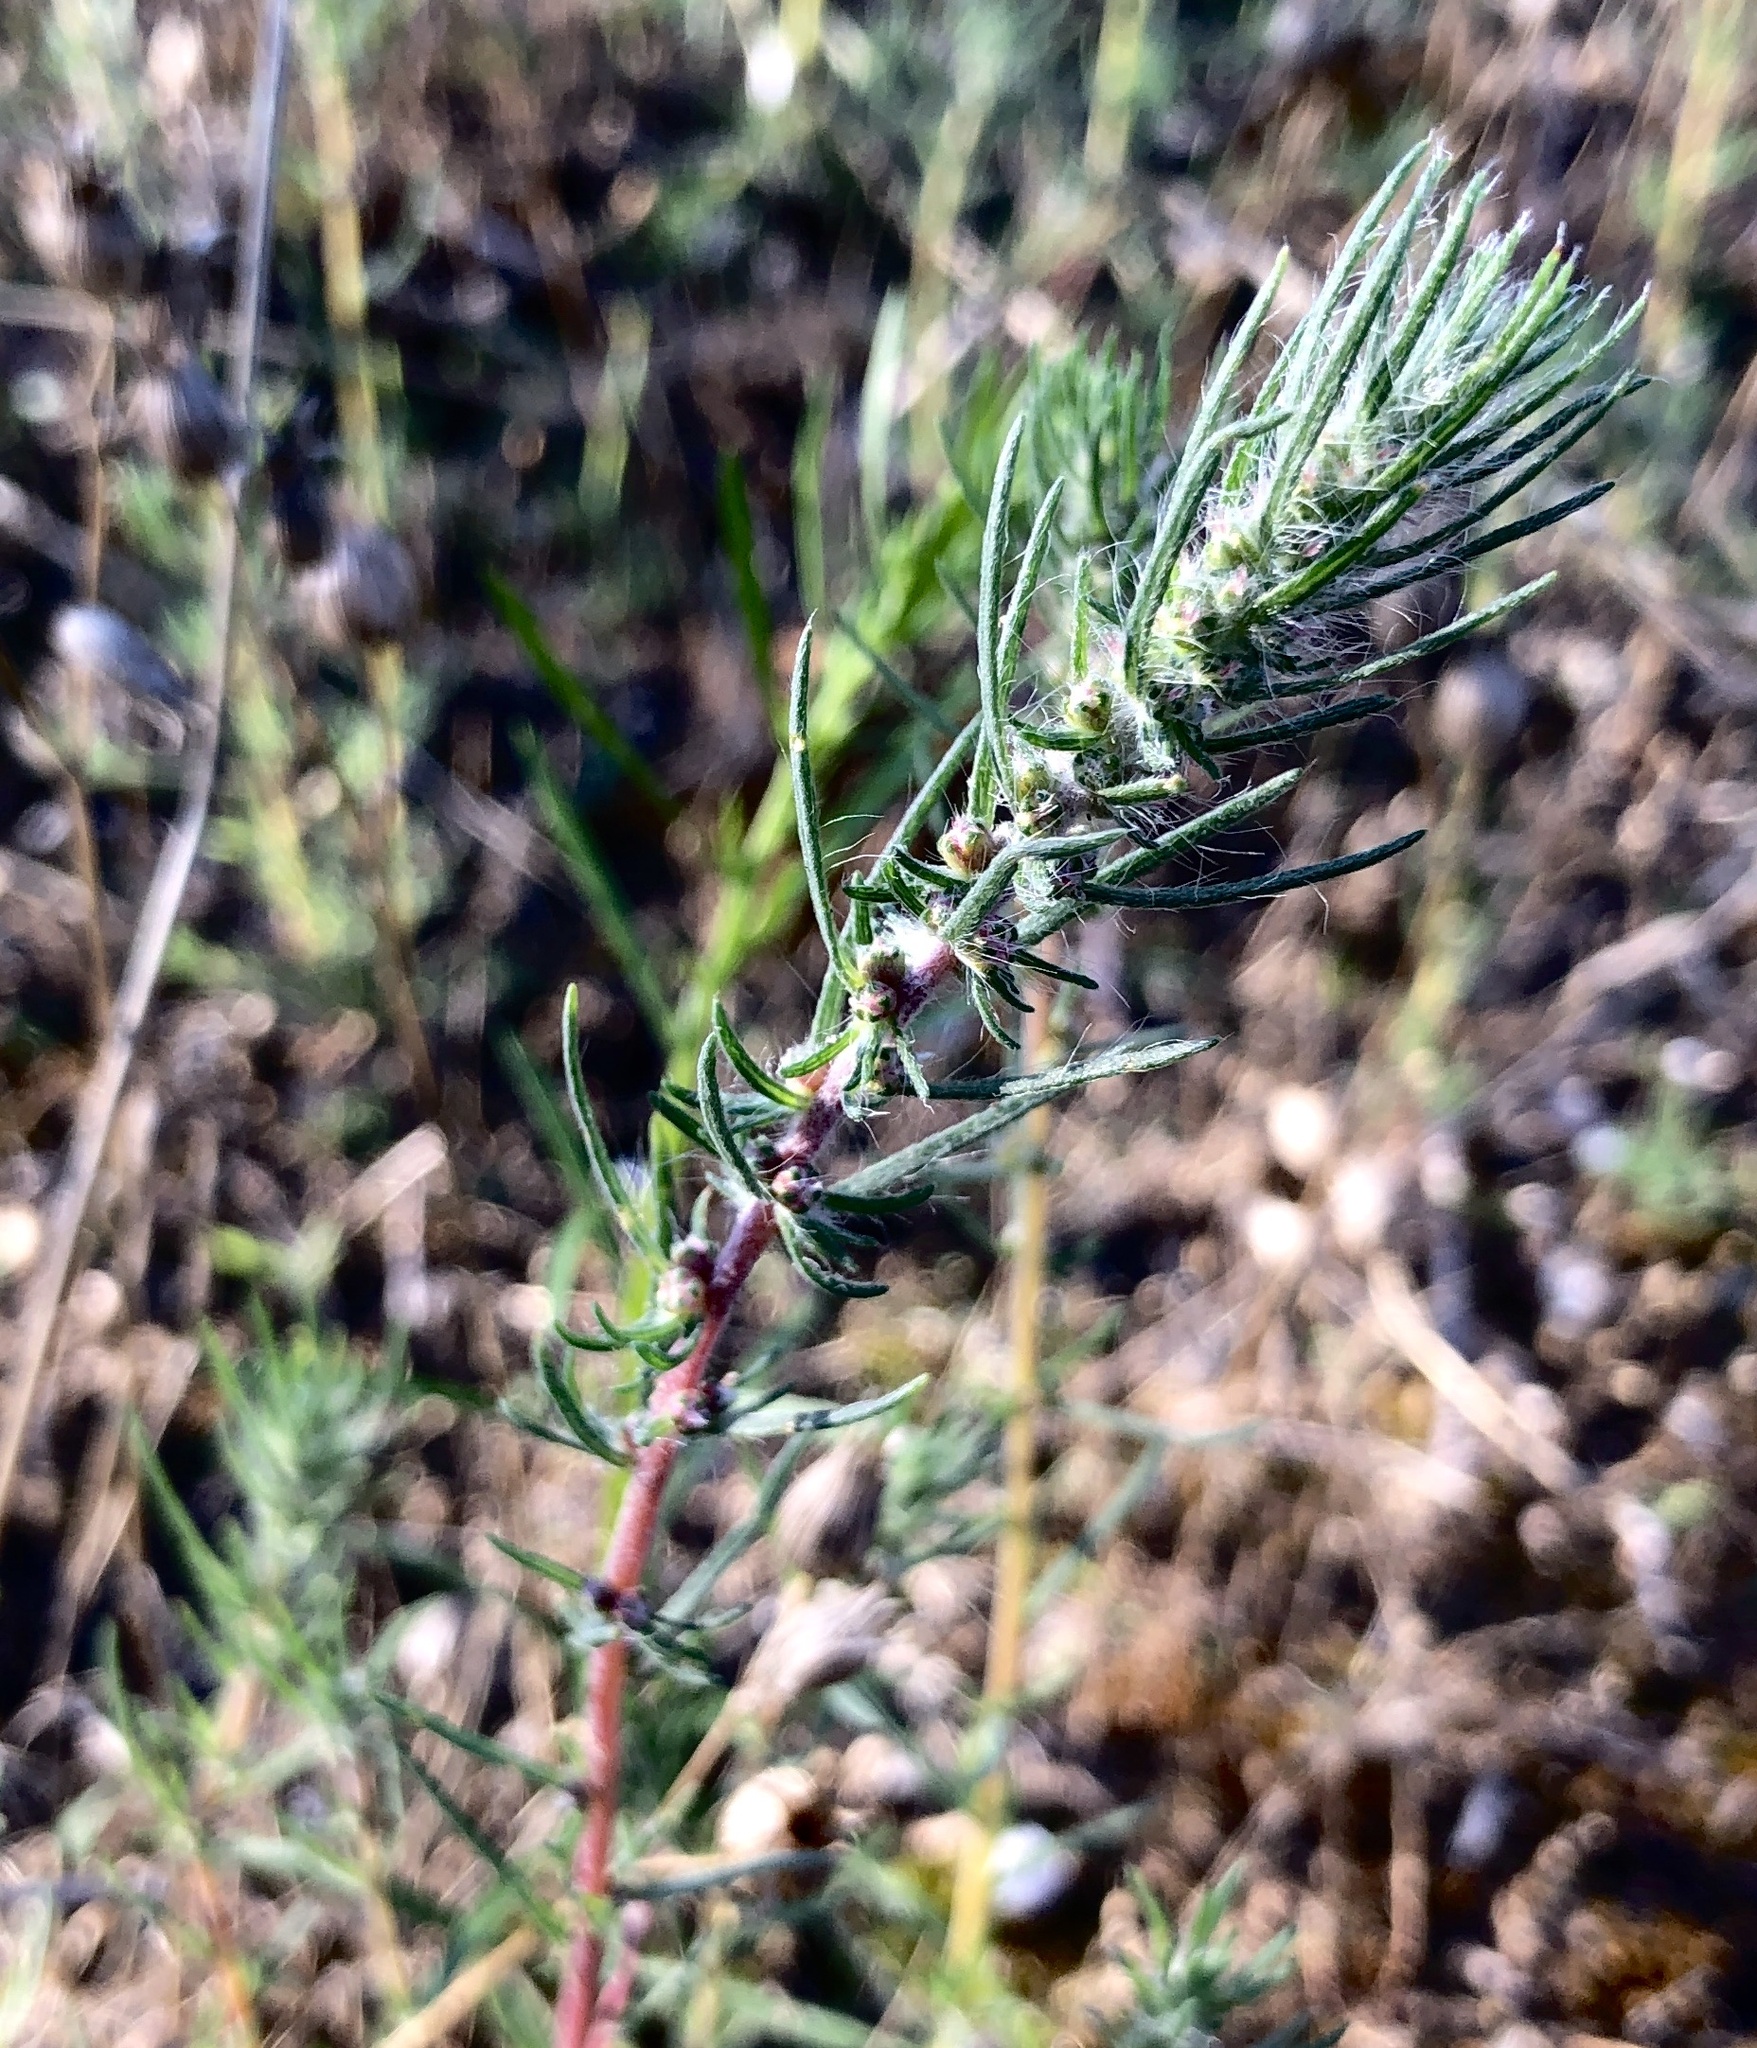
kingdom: Plantae
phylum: Tracheophyta
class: Magnoliopsida
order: Caryophyllales
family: Amaranthaceae
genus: Bassia
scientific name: Bassia laniflora
